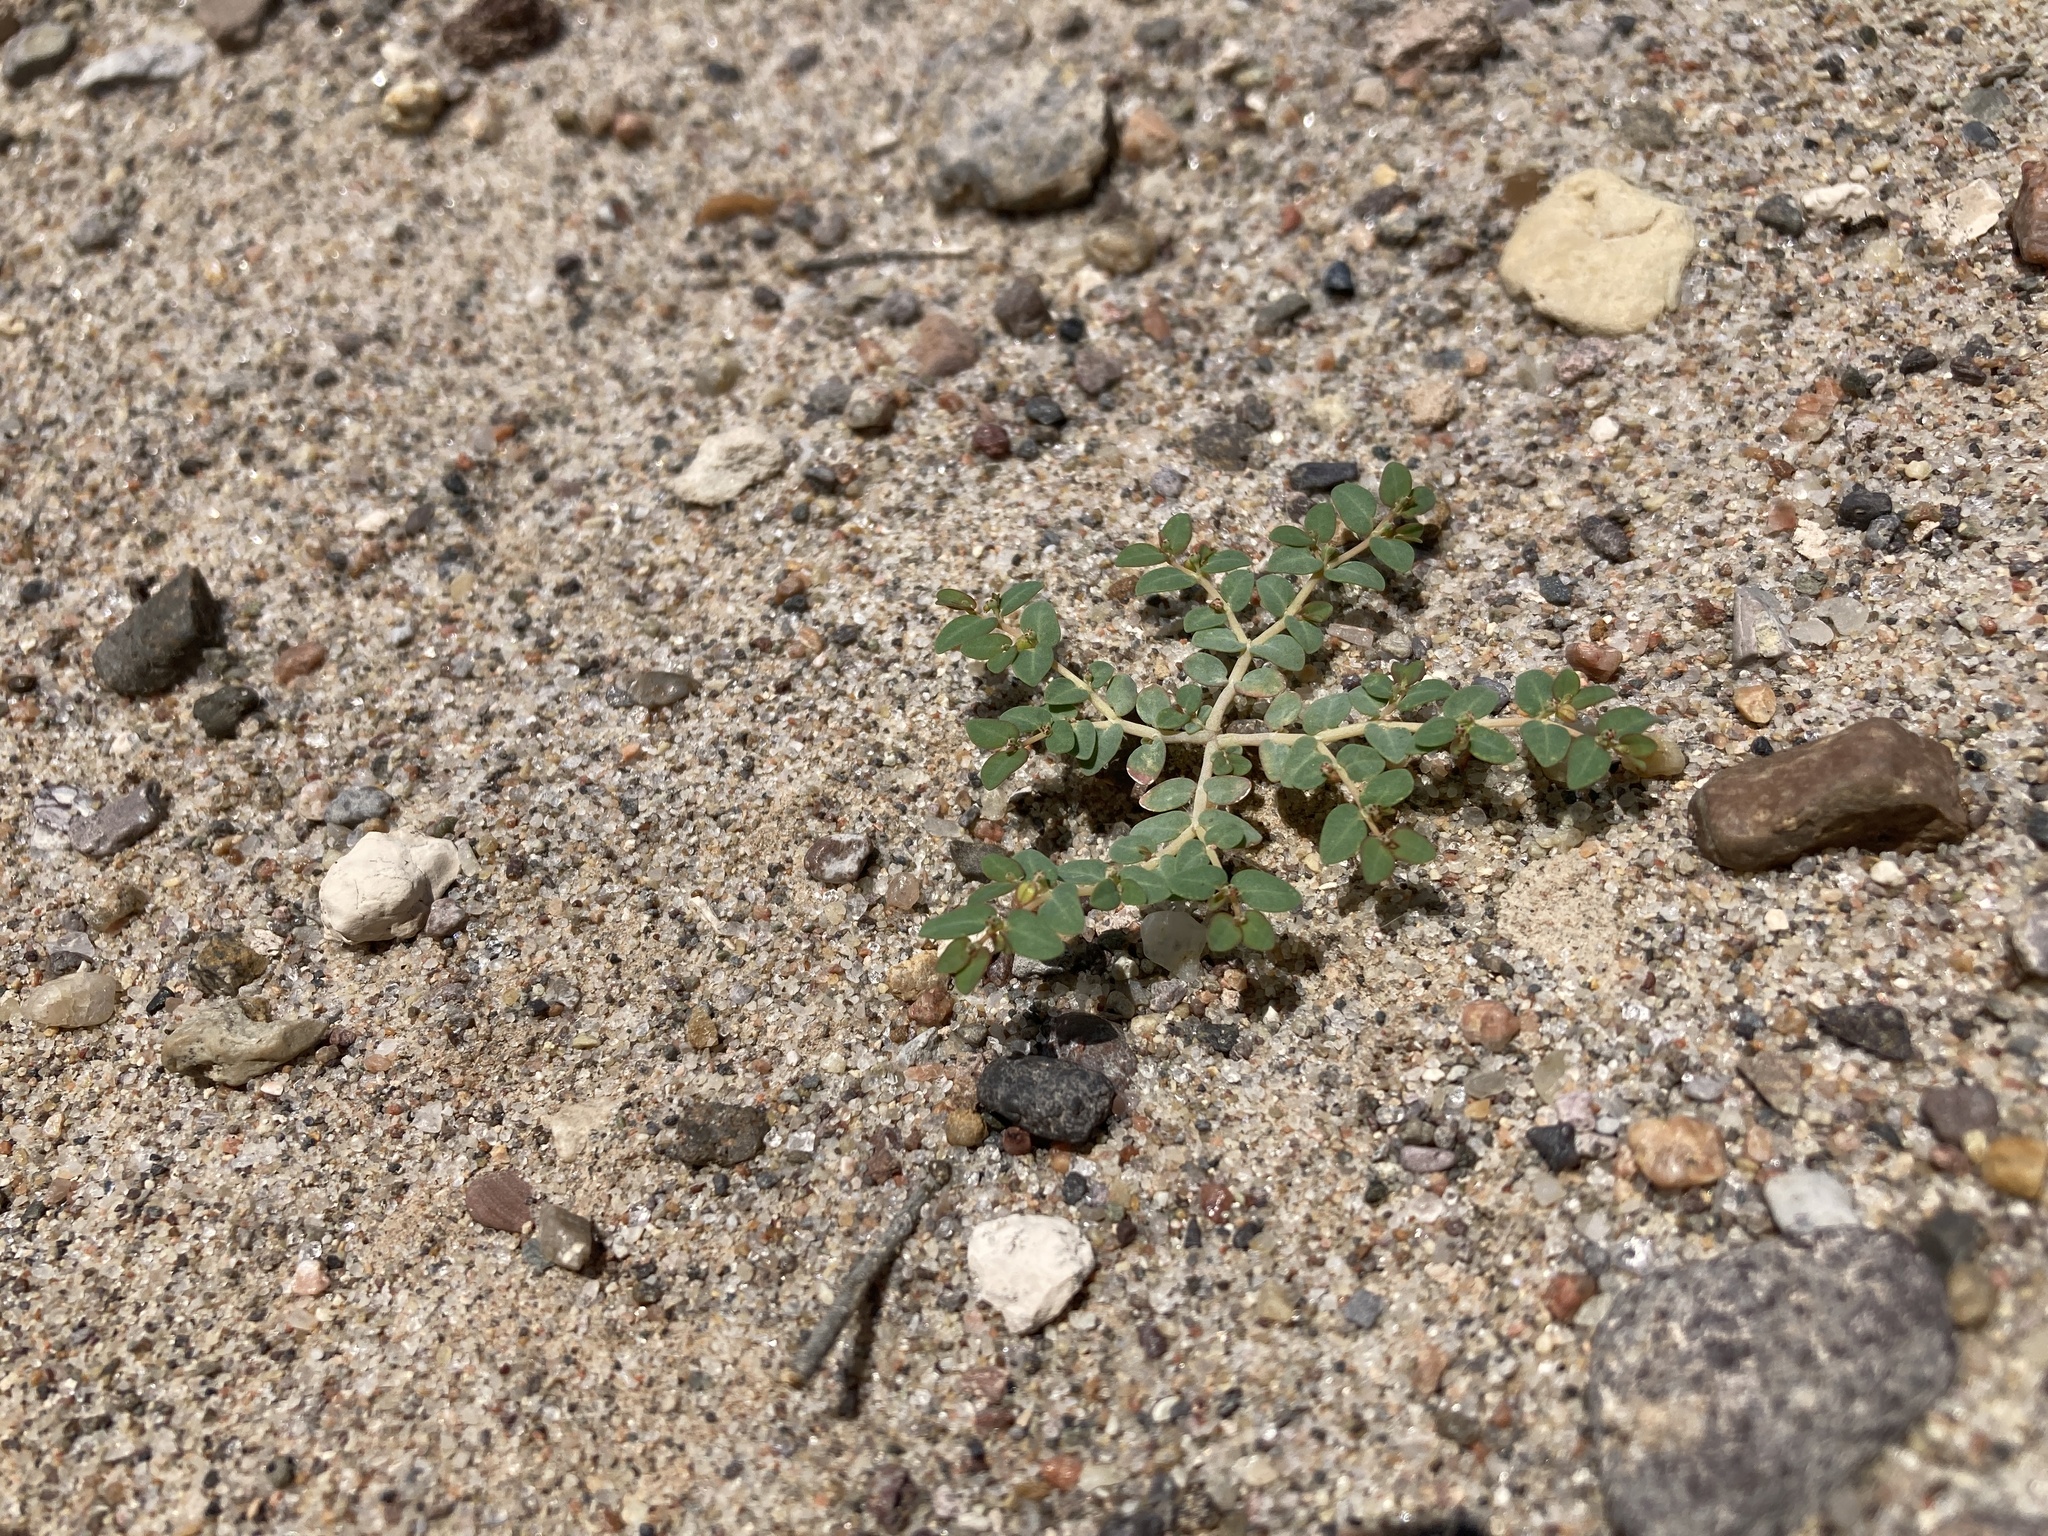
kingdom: Plantae
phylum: Tracheophyta
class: Magnoliopsida
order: Malpighiales
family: Euphorbiaceae
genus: Euphorbia
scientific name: Euphorbia micromera
